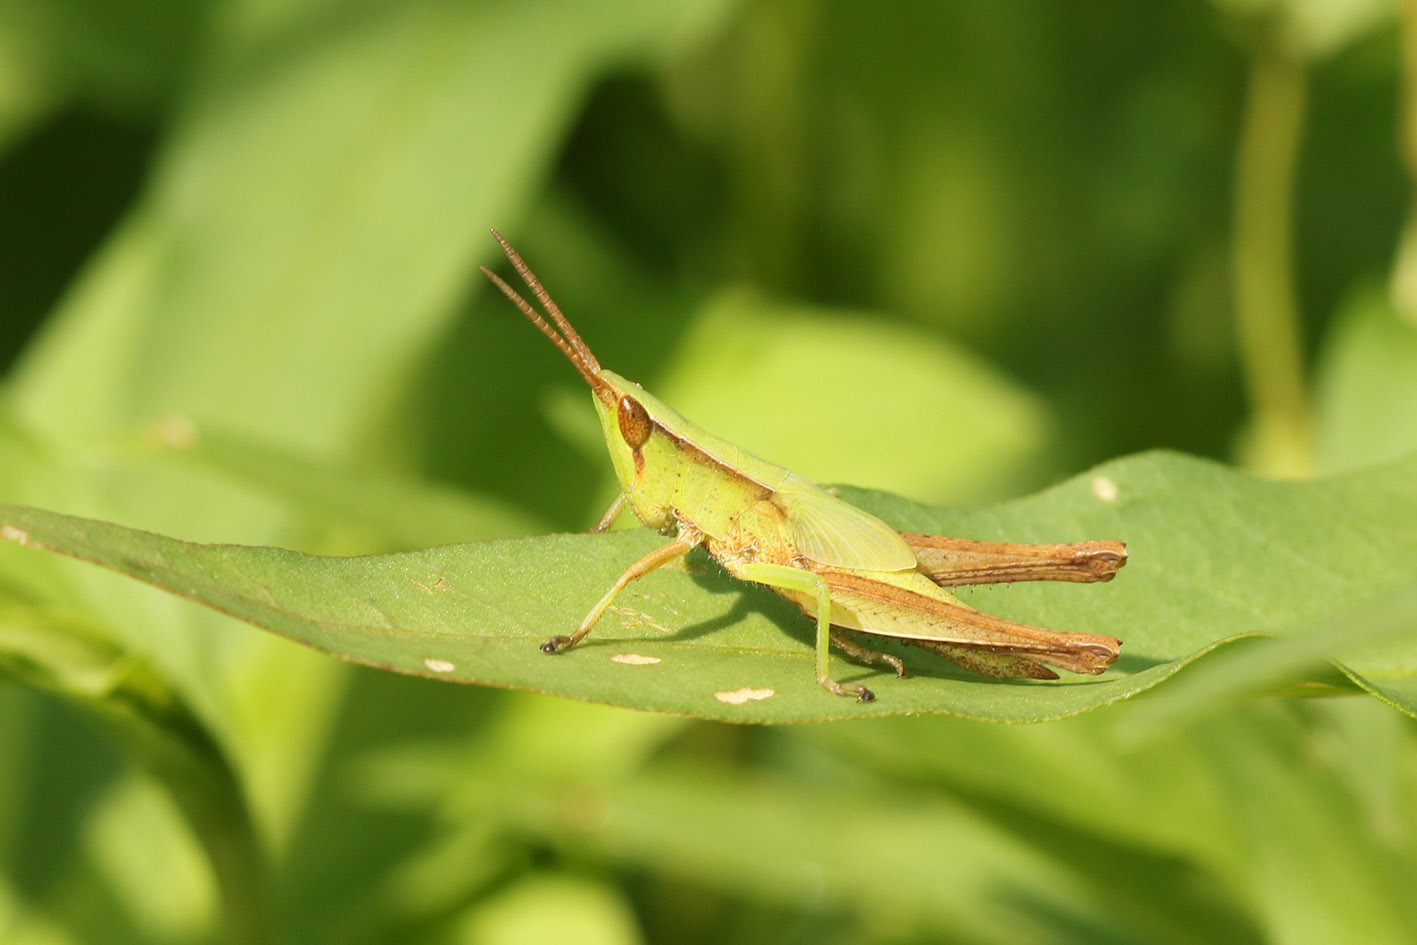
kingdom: Animalia
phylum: Arthropoda
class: Insecta
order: Orthoptera
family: Acrididae
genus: Metaleptea
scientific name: Metaleptea adspersa
